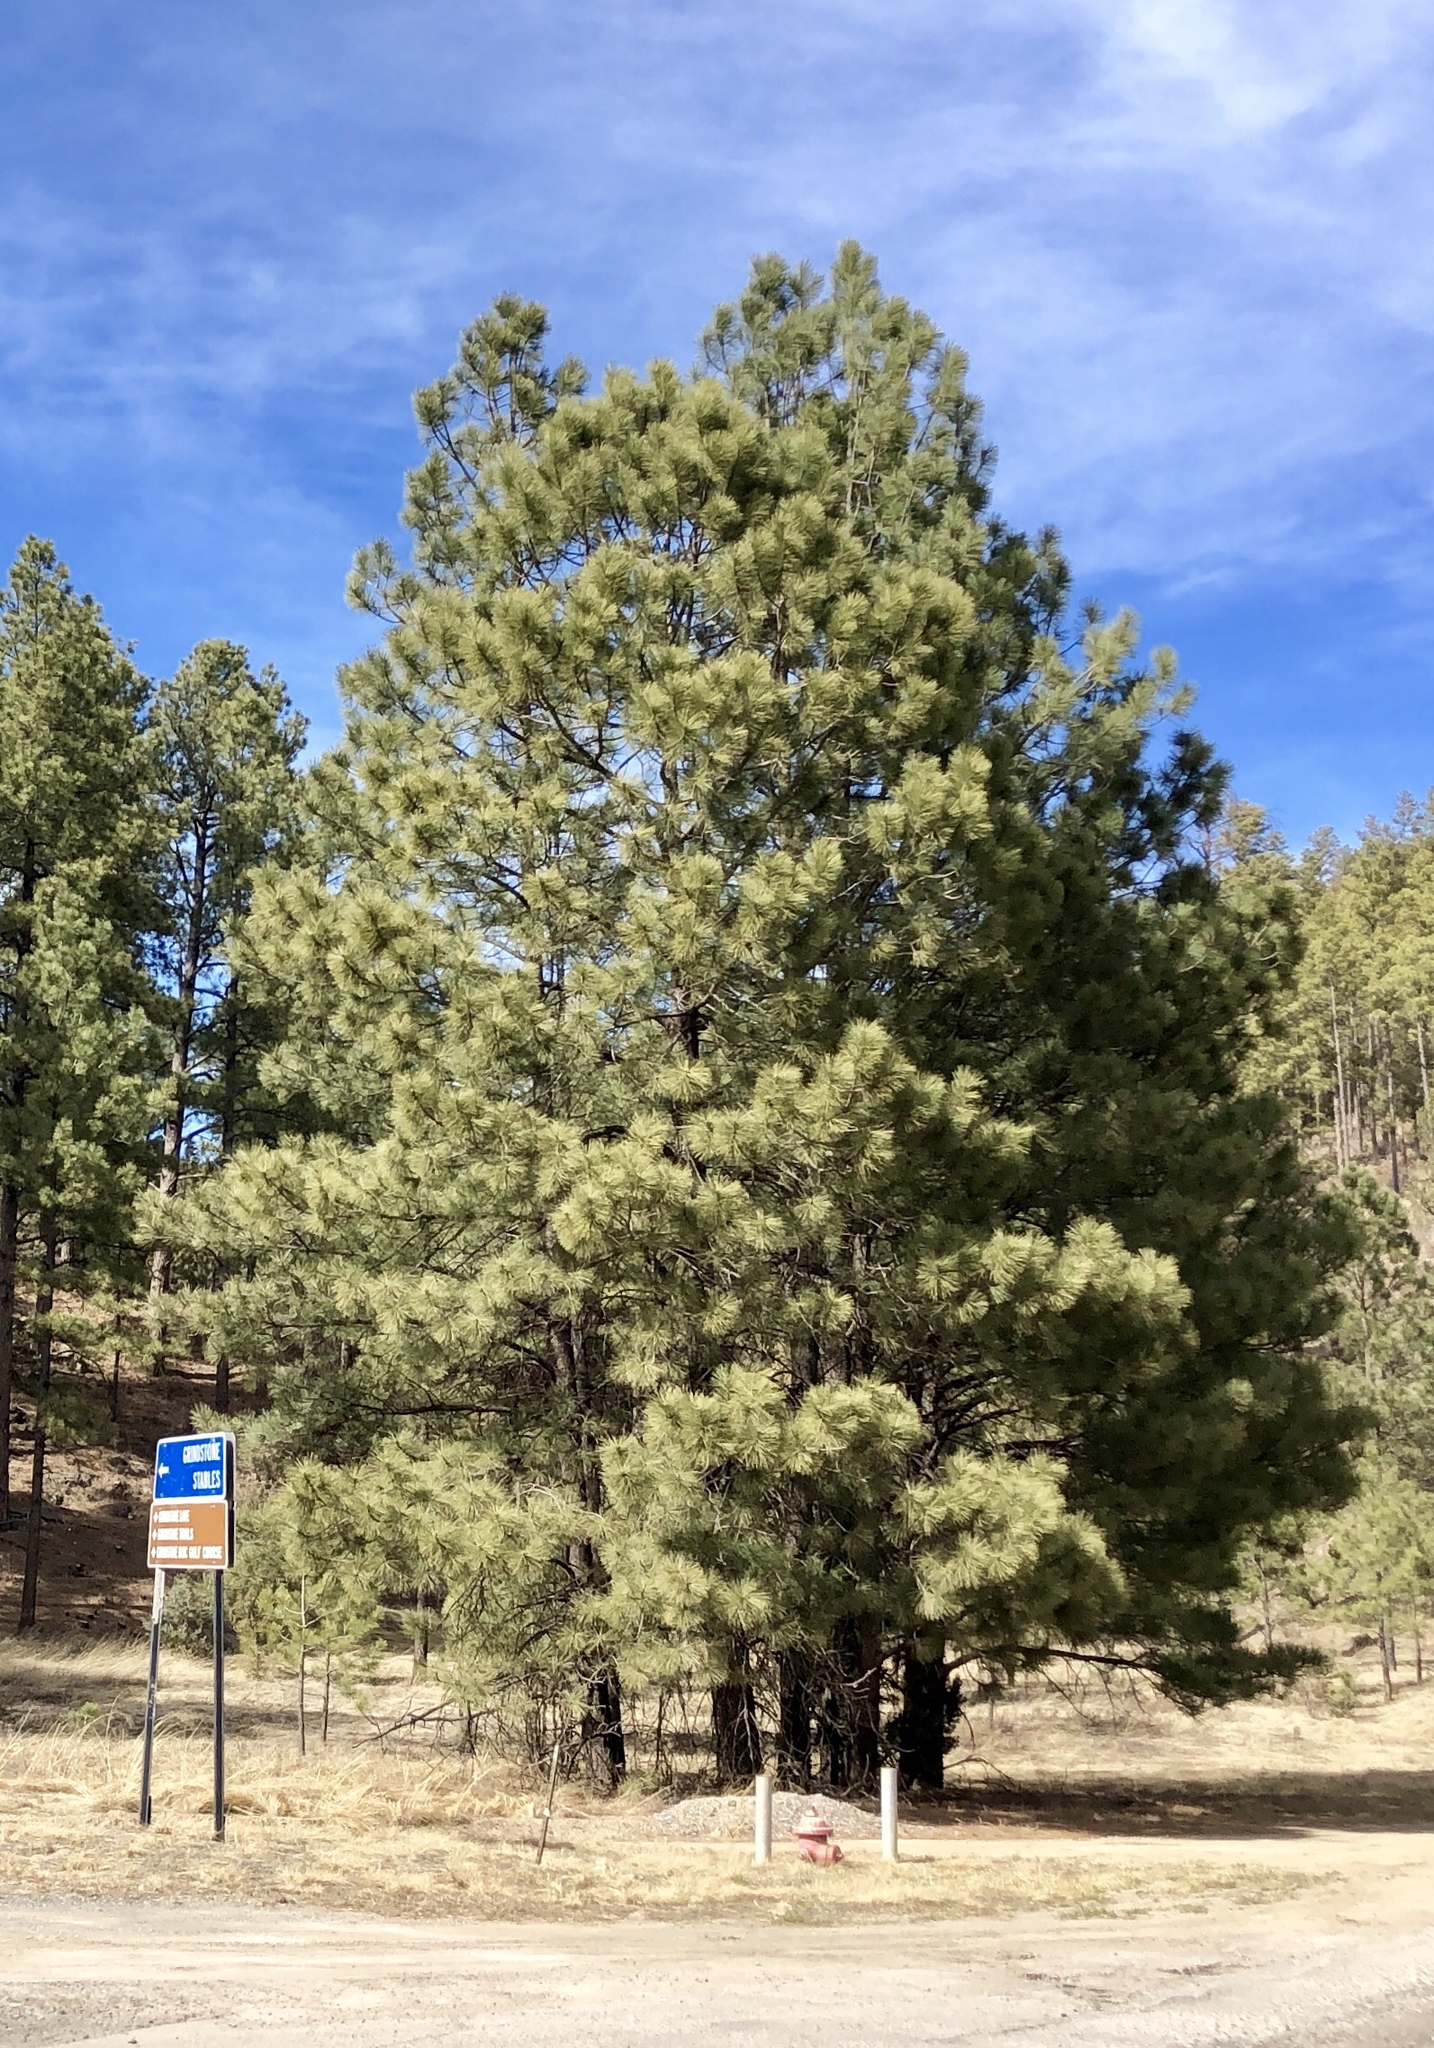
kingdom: Plantae
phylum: Tracheophyta
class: Pinopsida
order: Pinales
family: Pinaceae
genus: Pinus
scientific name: Pinus ponderosa
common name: Western yellow-pine
